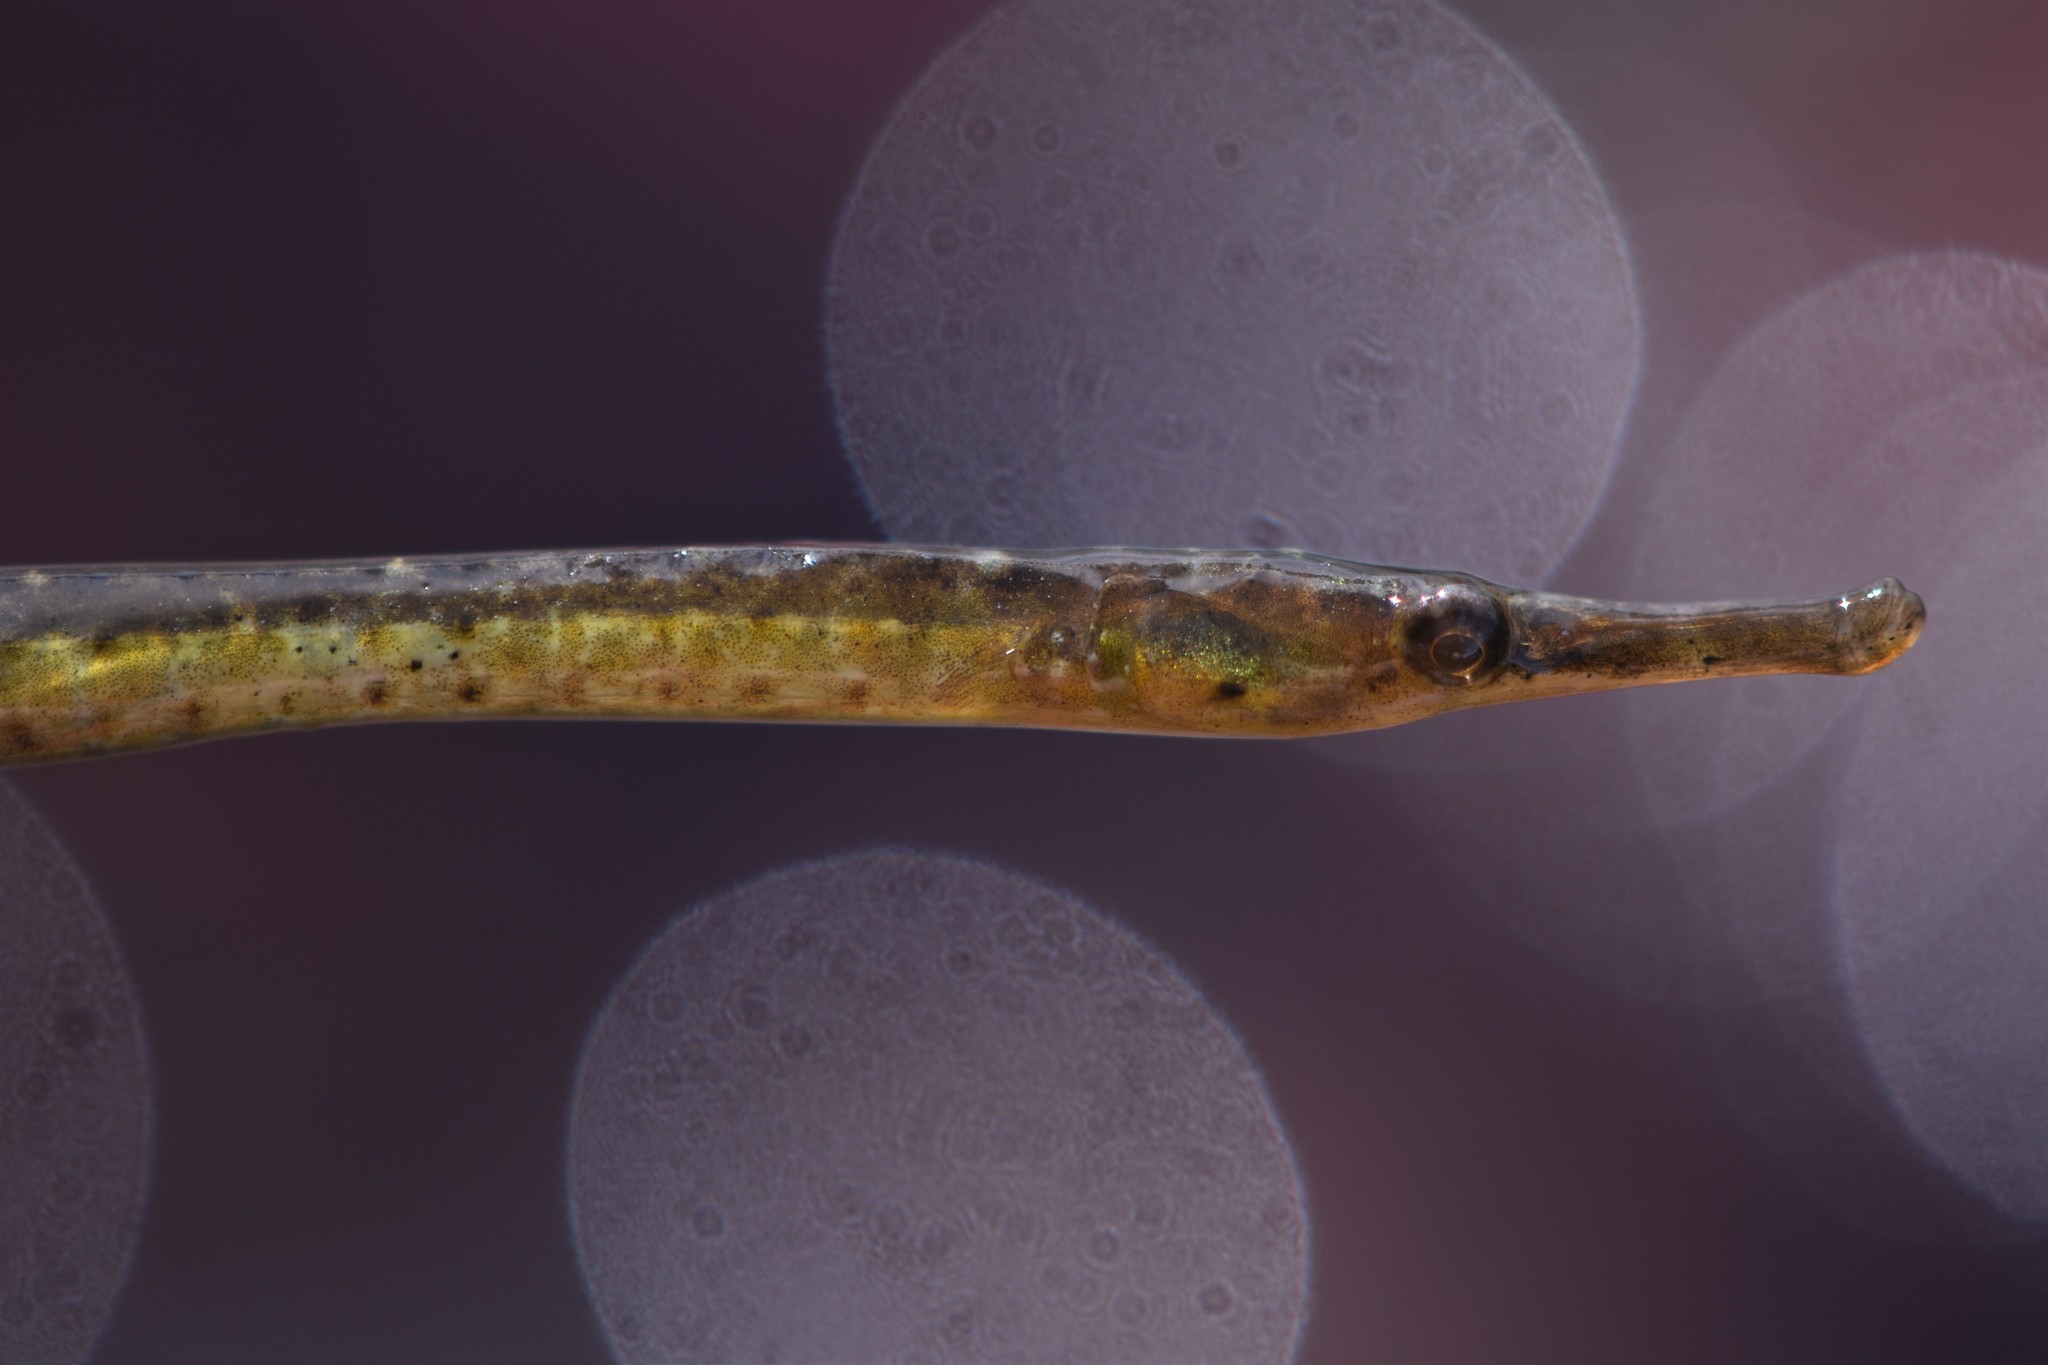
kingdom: Animalia
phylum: Chordata
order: Syngnathiformes
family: Syngnathidae
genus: Syngnathus
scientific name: Syngnathus californiensis
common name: Great pipefish
